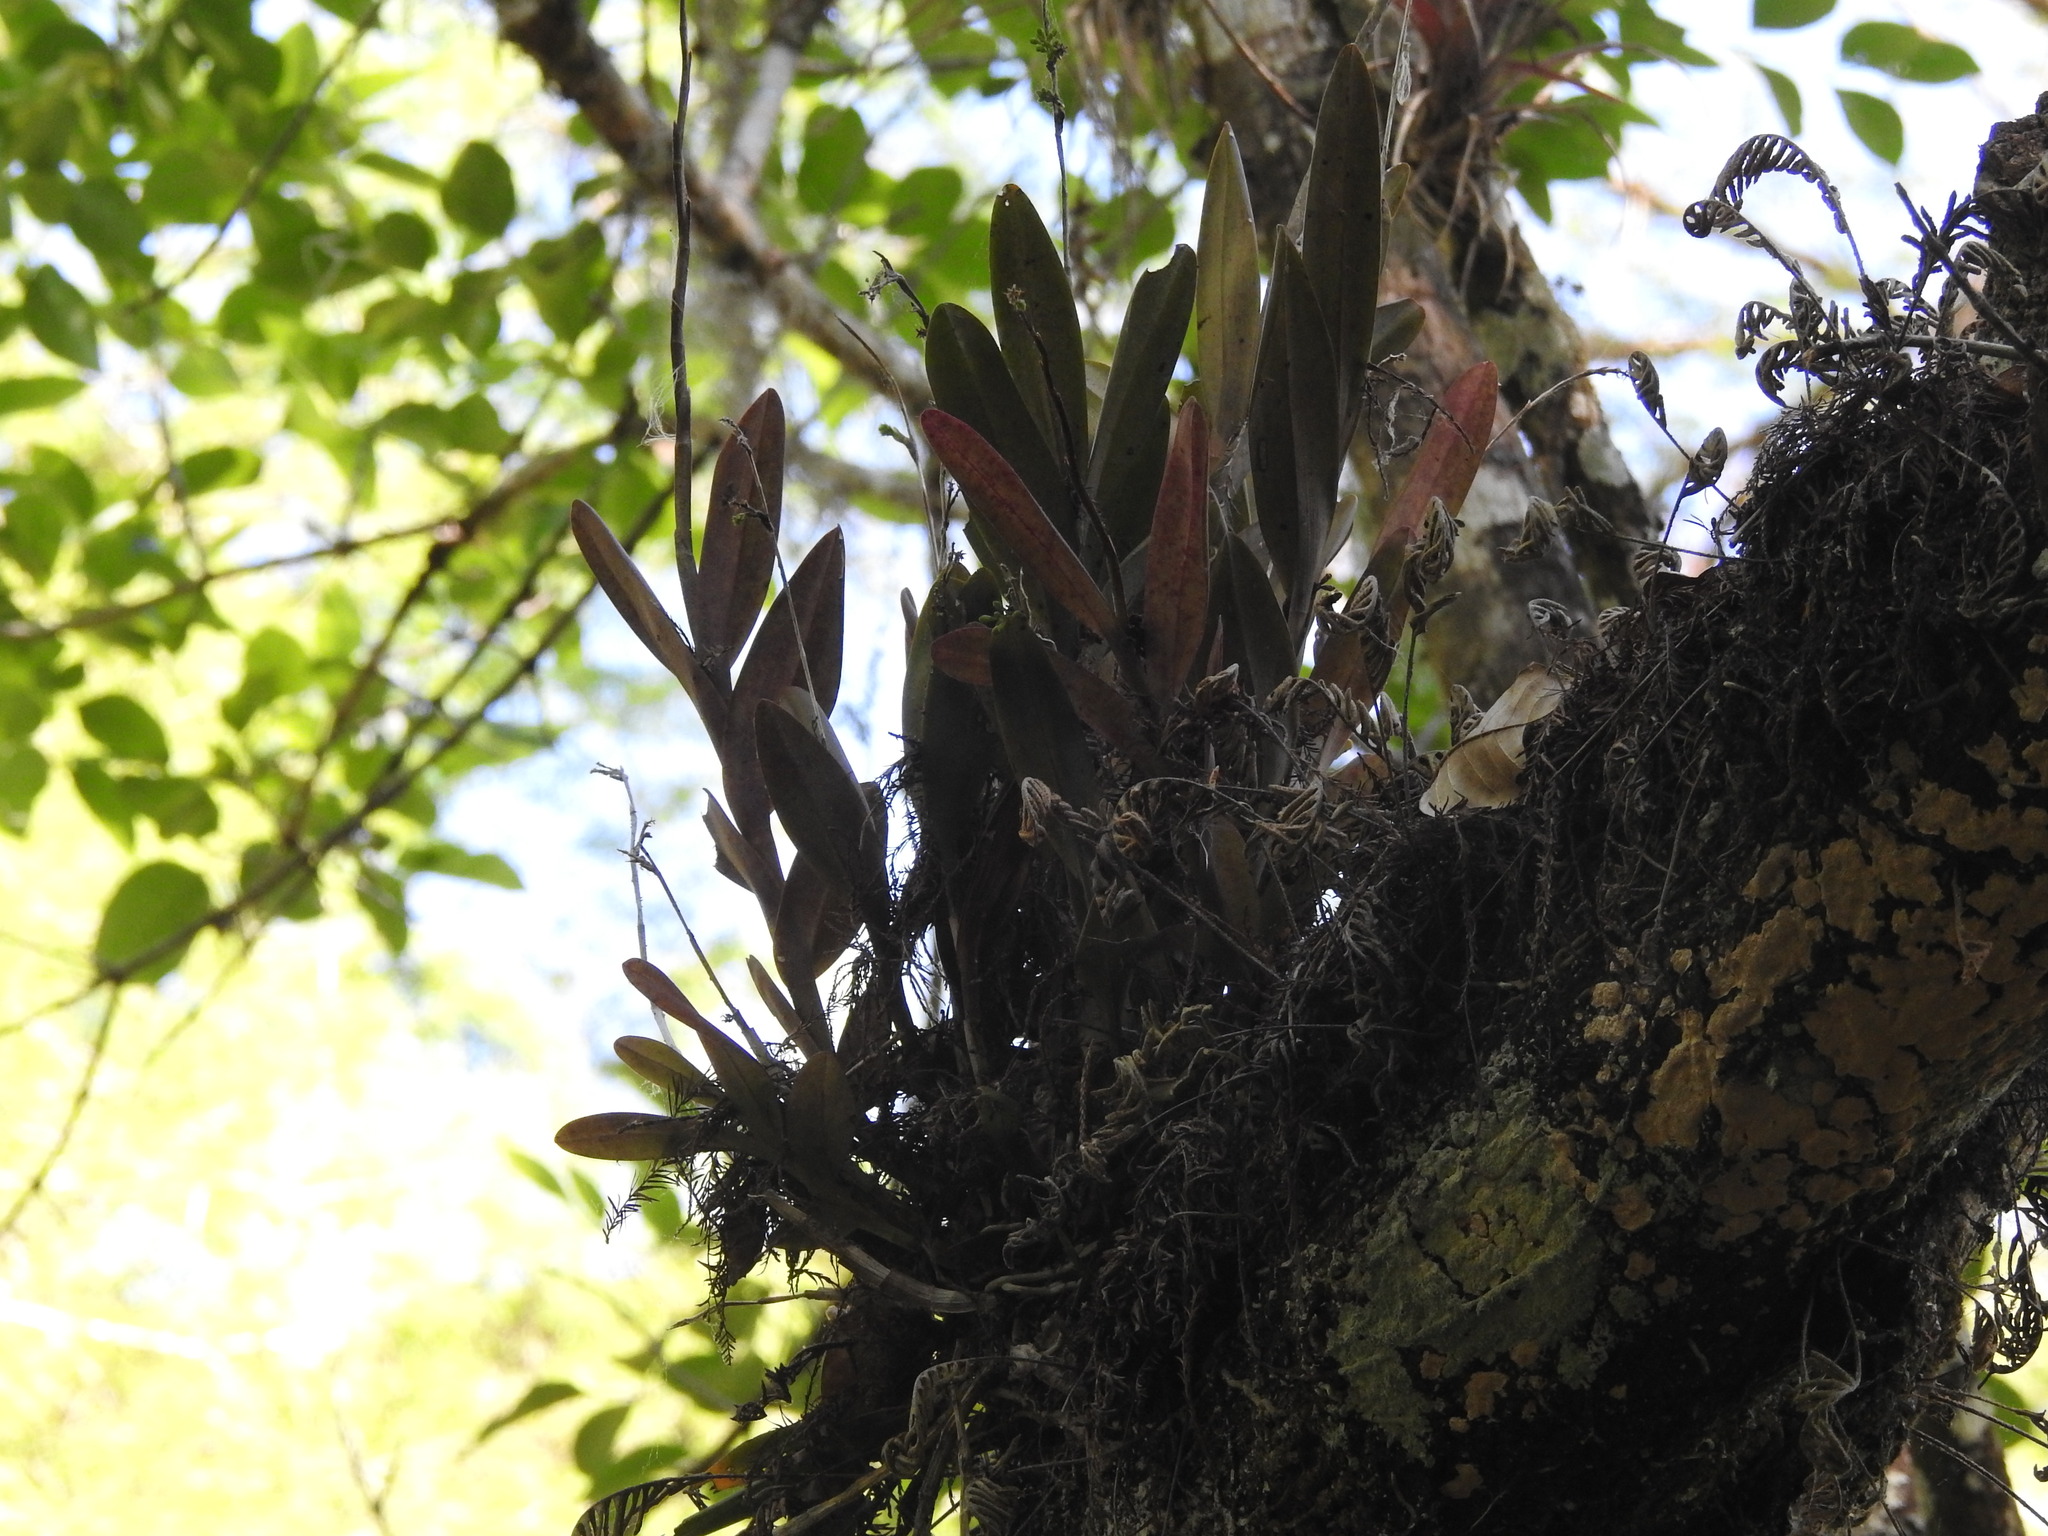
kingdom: Plantae
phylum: Tracheophyta
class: Liliopsida
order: Asparagales
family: Orchidaceae
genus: Epidendrum
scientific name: Epidendrum amphistomum
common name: Big-mouth star orchid
